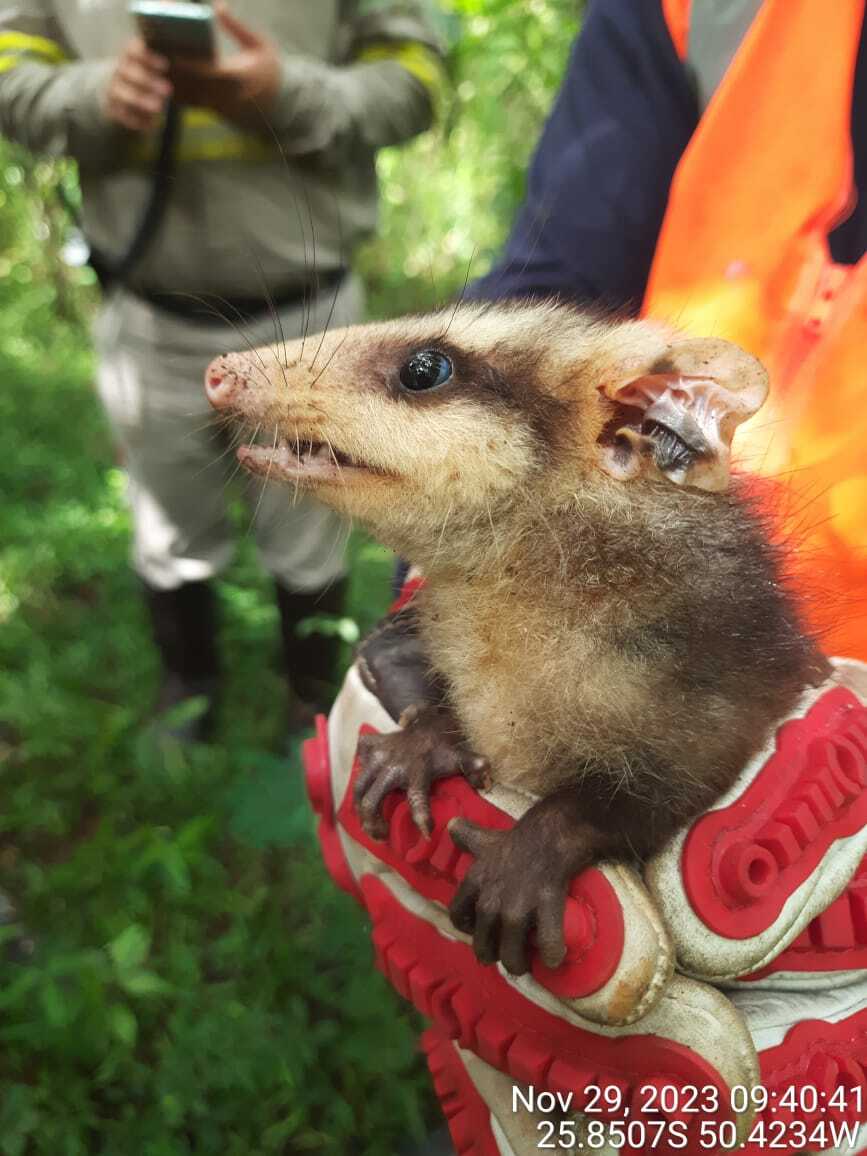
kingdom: Animalia
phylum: Chordata
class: Mammalia
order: Didelphimorphia
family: Didelphidae
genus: Didelphis
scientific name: Didelphis albiventris
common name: White-eared opossum
